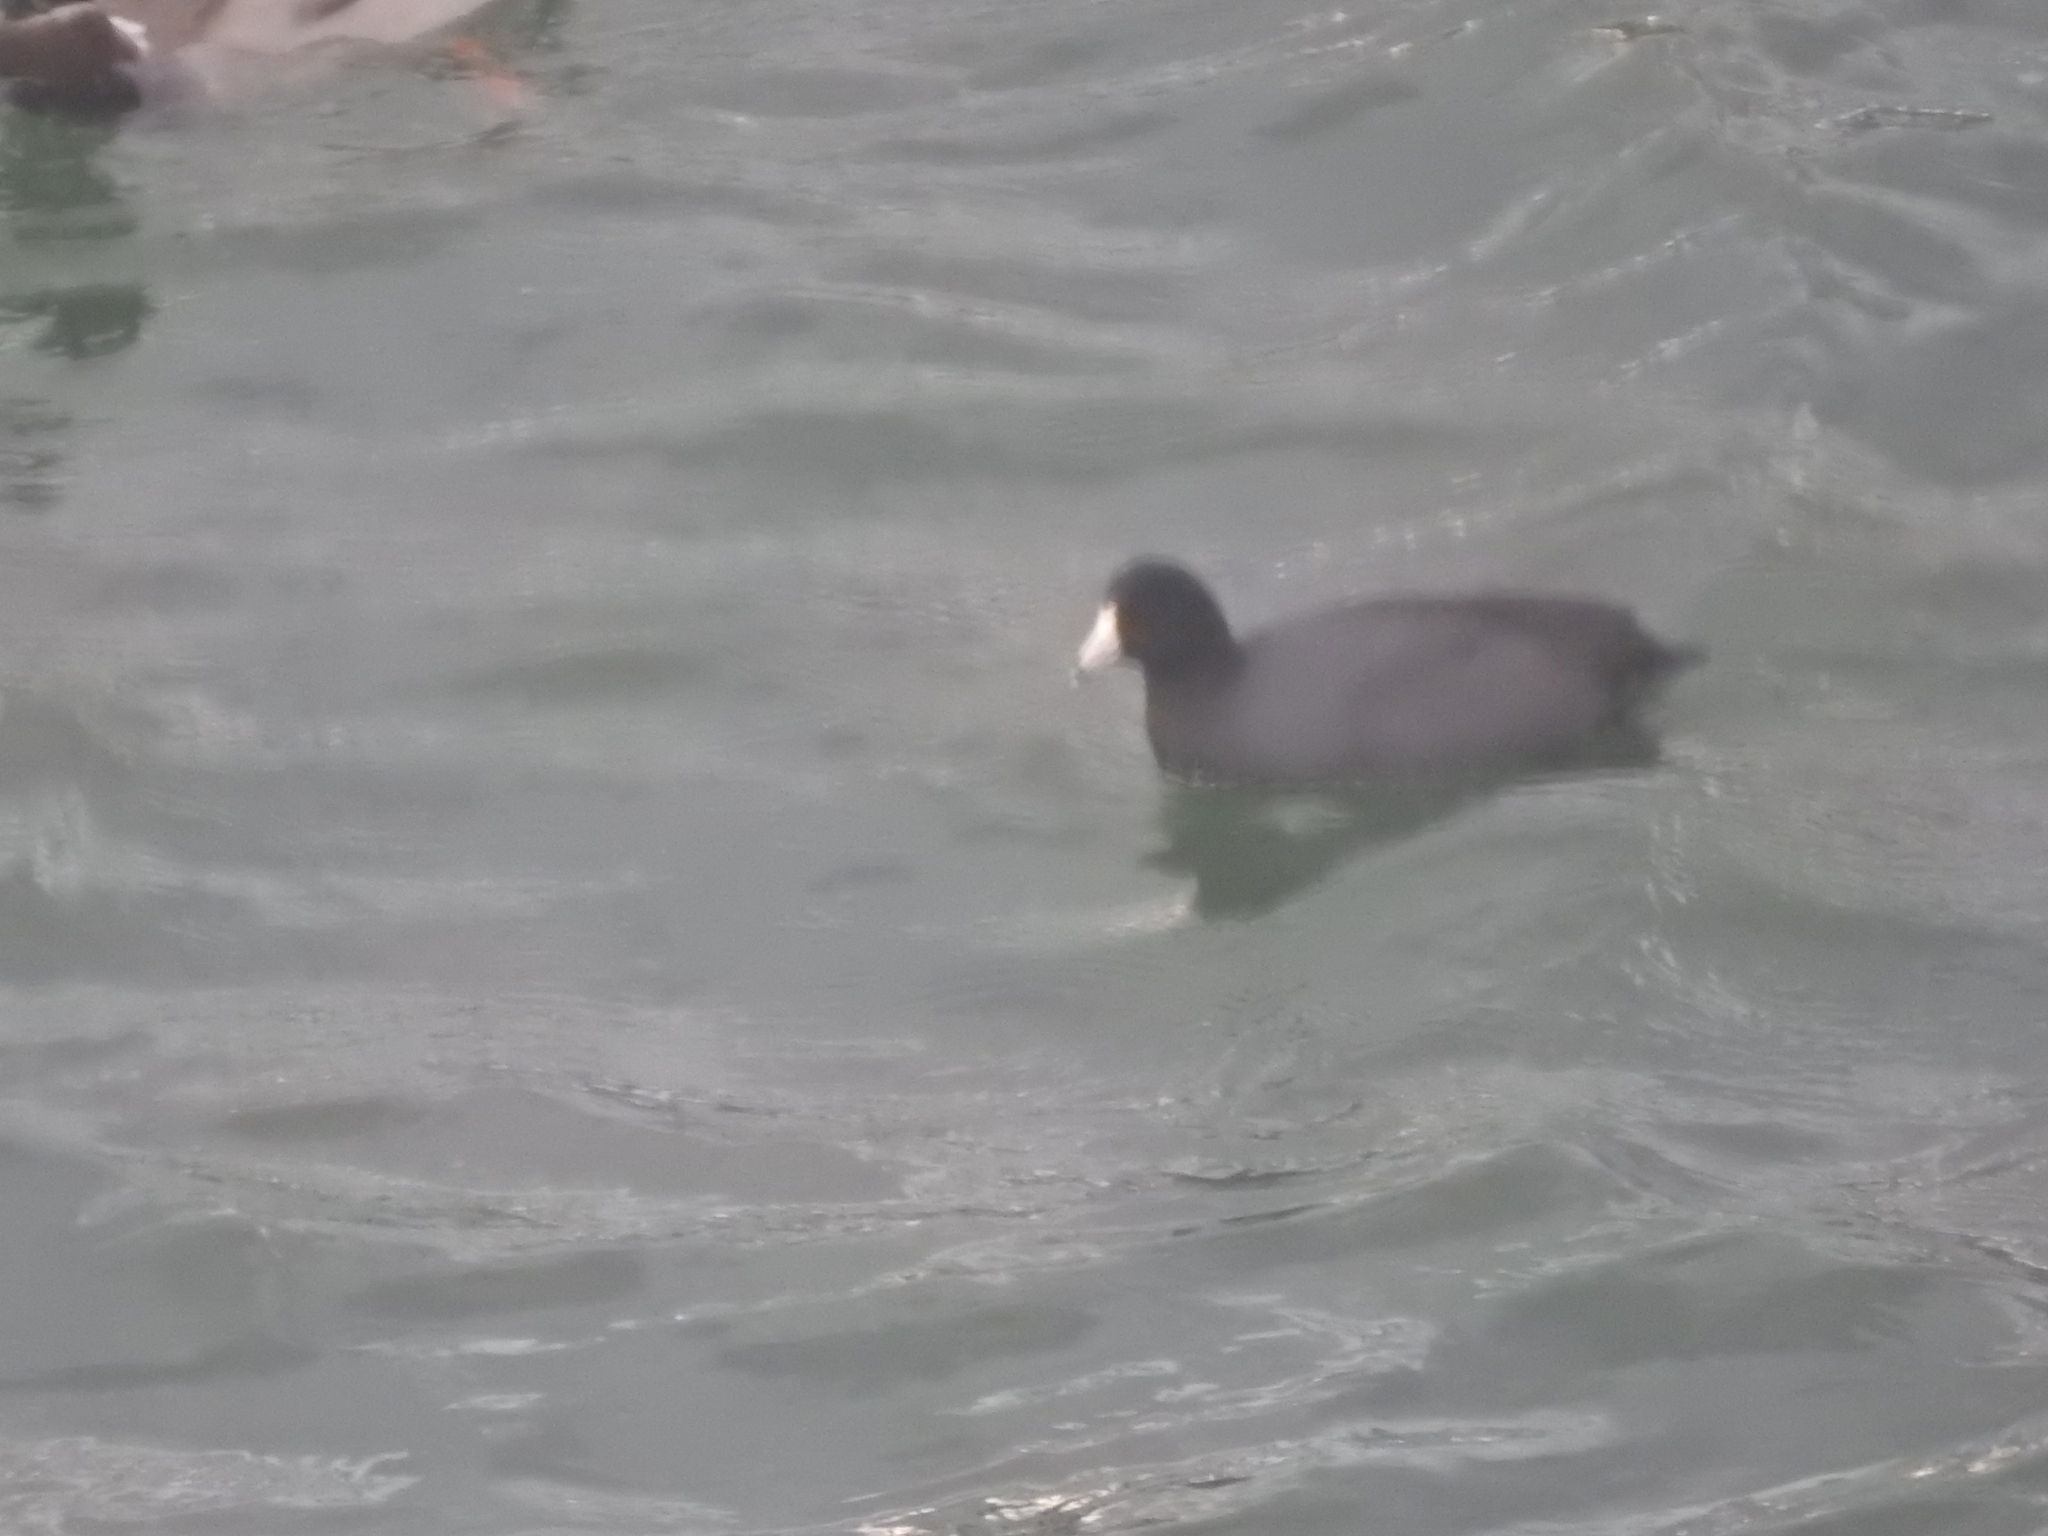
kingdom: Animalia
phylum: Chordata
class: Aves
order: Gruiformes
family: Rallidae
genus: Fulica
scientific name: Fulica americana
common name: American coot
